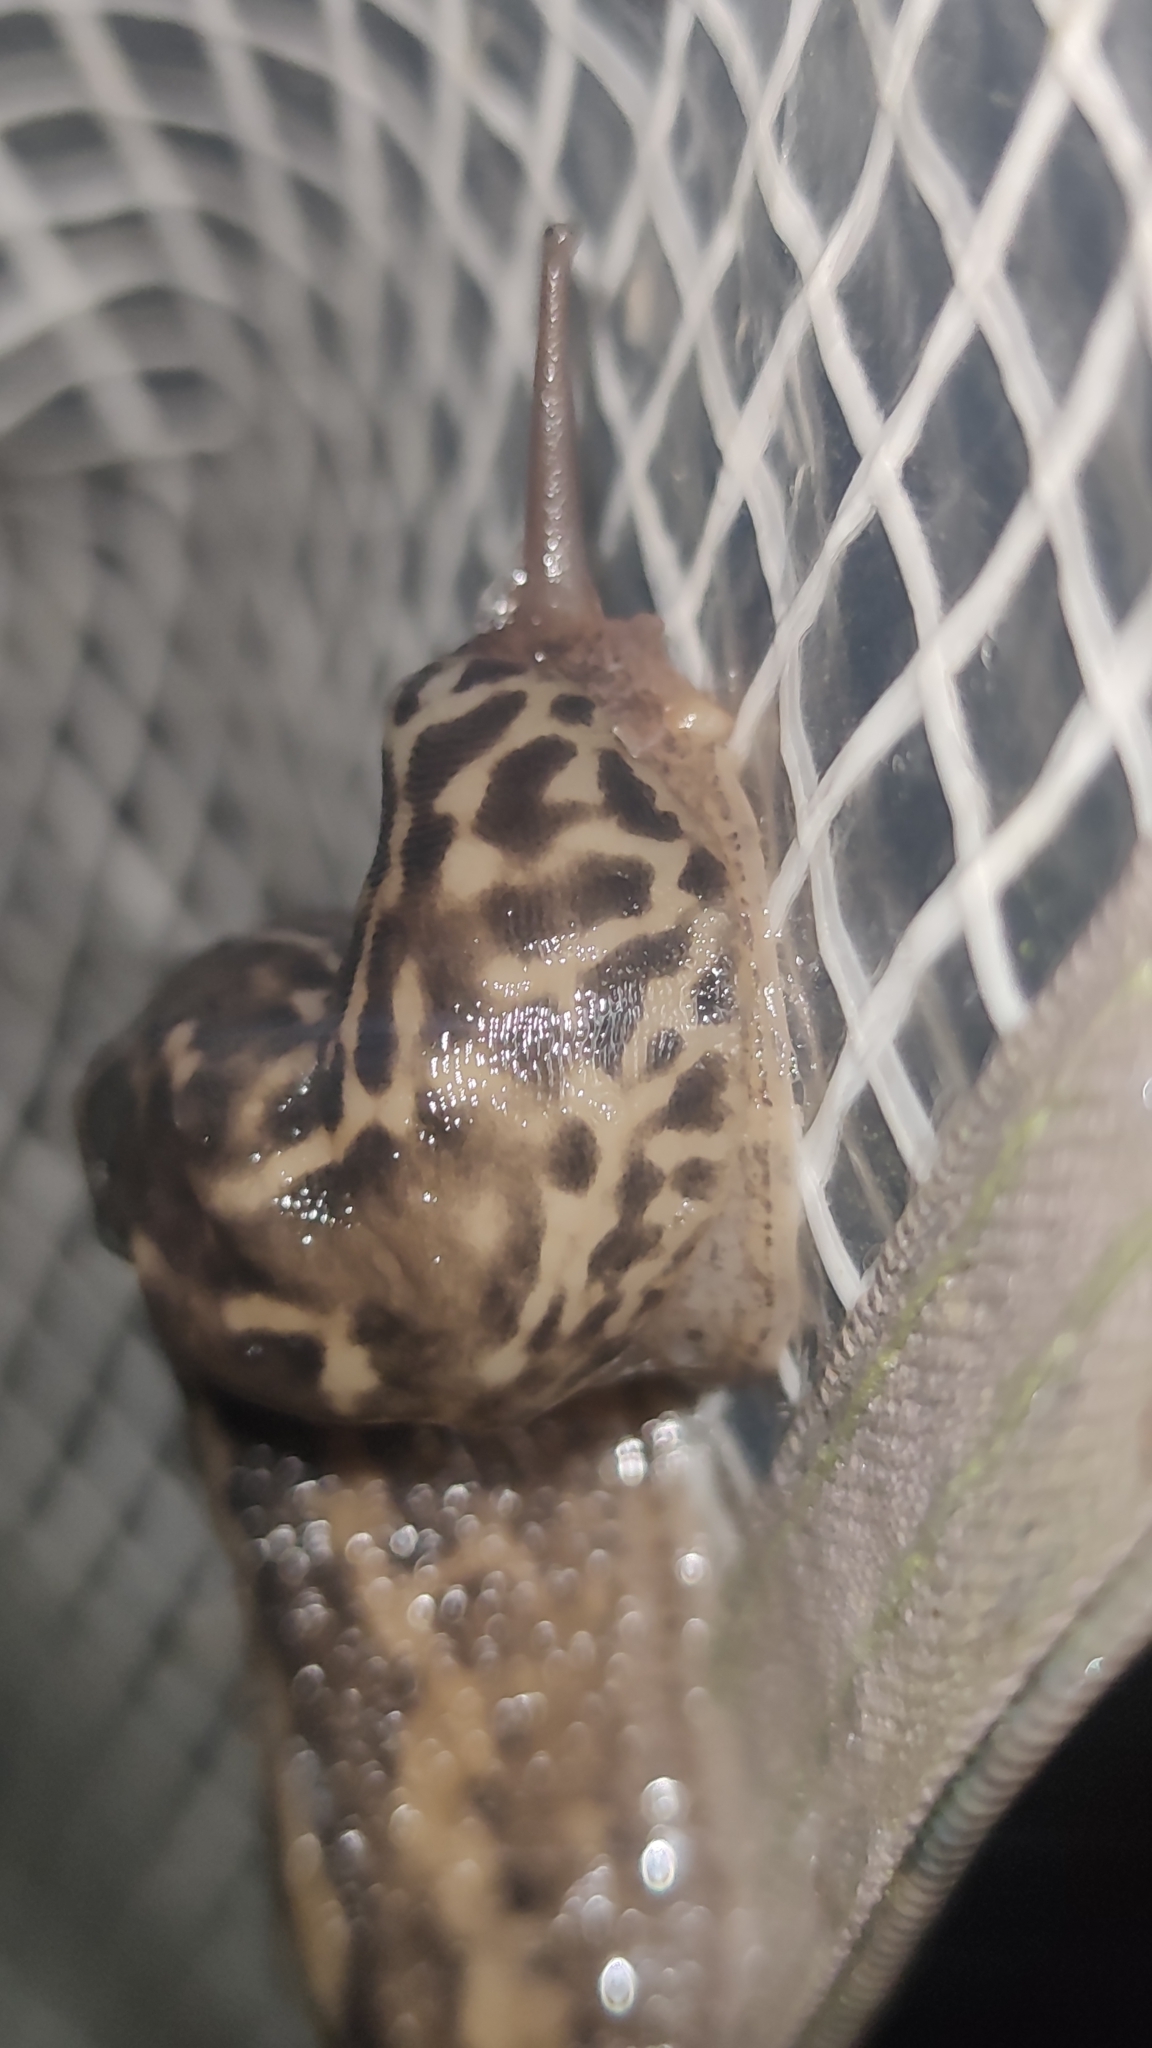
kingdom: Animalia
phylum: Mollusca
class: Gastropoda
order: Stylommatophora
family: Limacidae
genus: Limax
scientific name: Limax maximus
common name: Great grey slug
